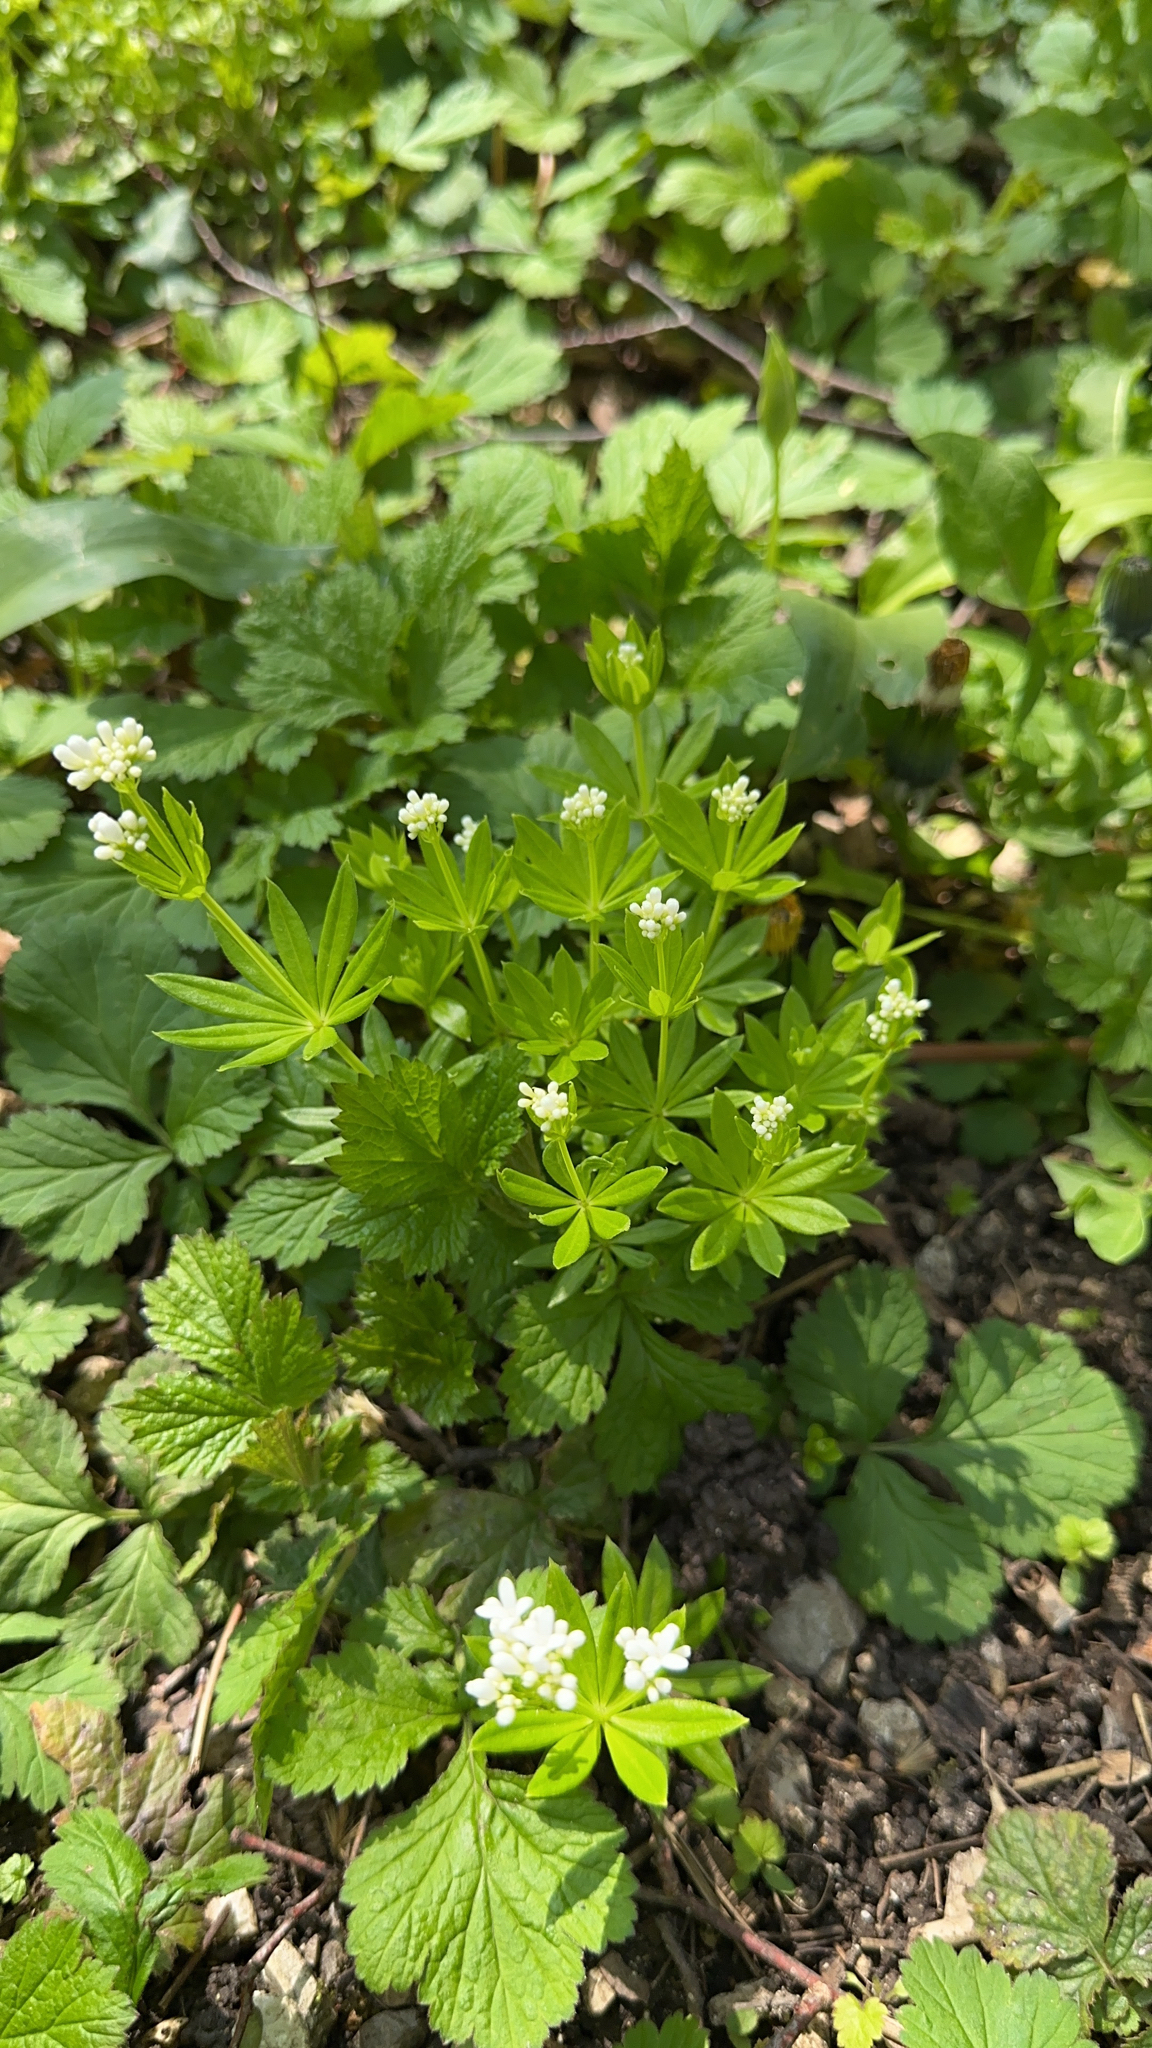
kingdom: Plantae
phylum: Tracheophyta
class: Magnoliopsida
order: Gentianales
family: Rubiaceae
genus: Galium
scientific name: Galium odoratum
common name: Sweet woodruff
